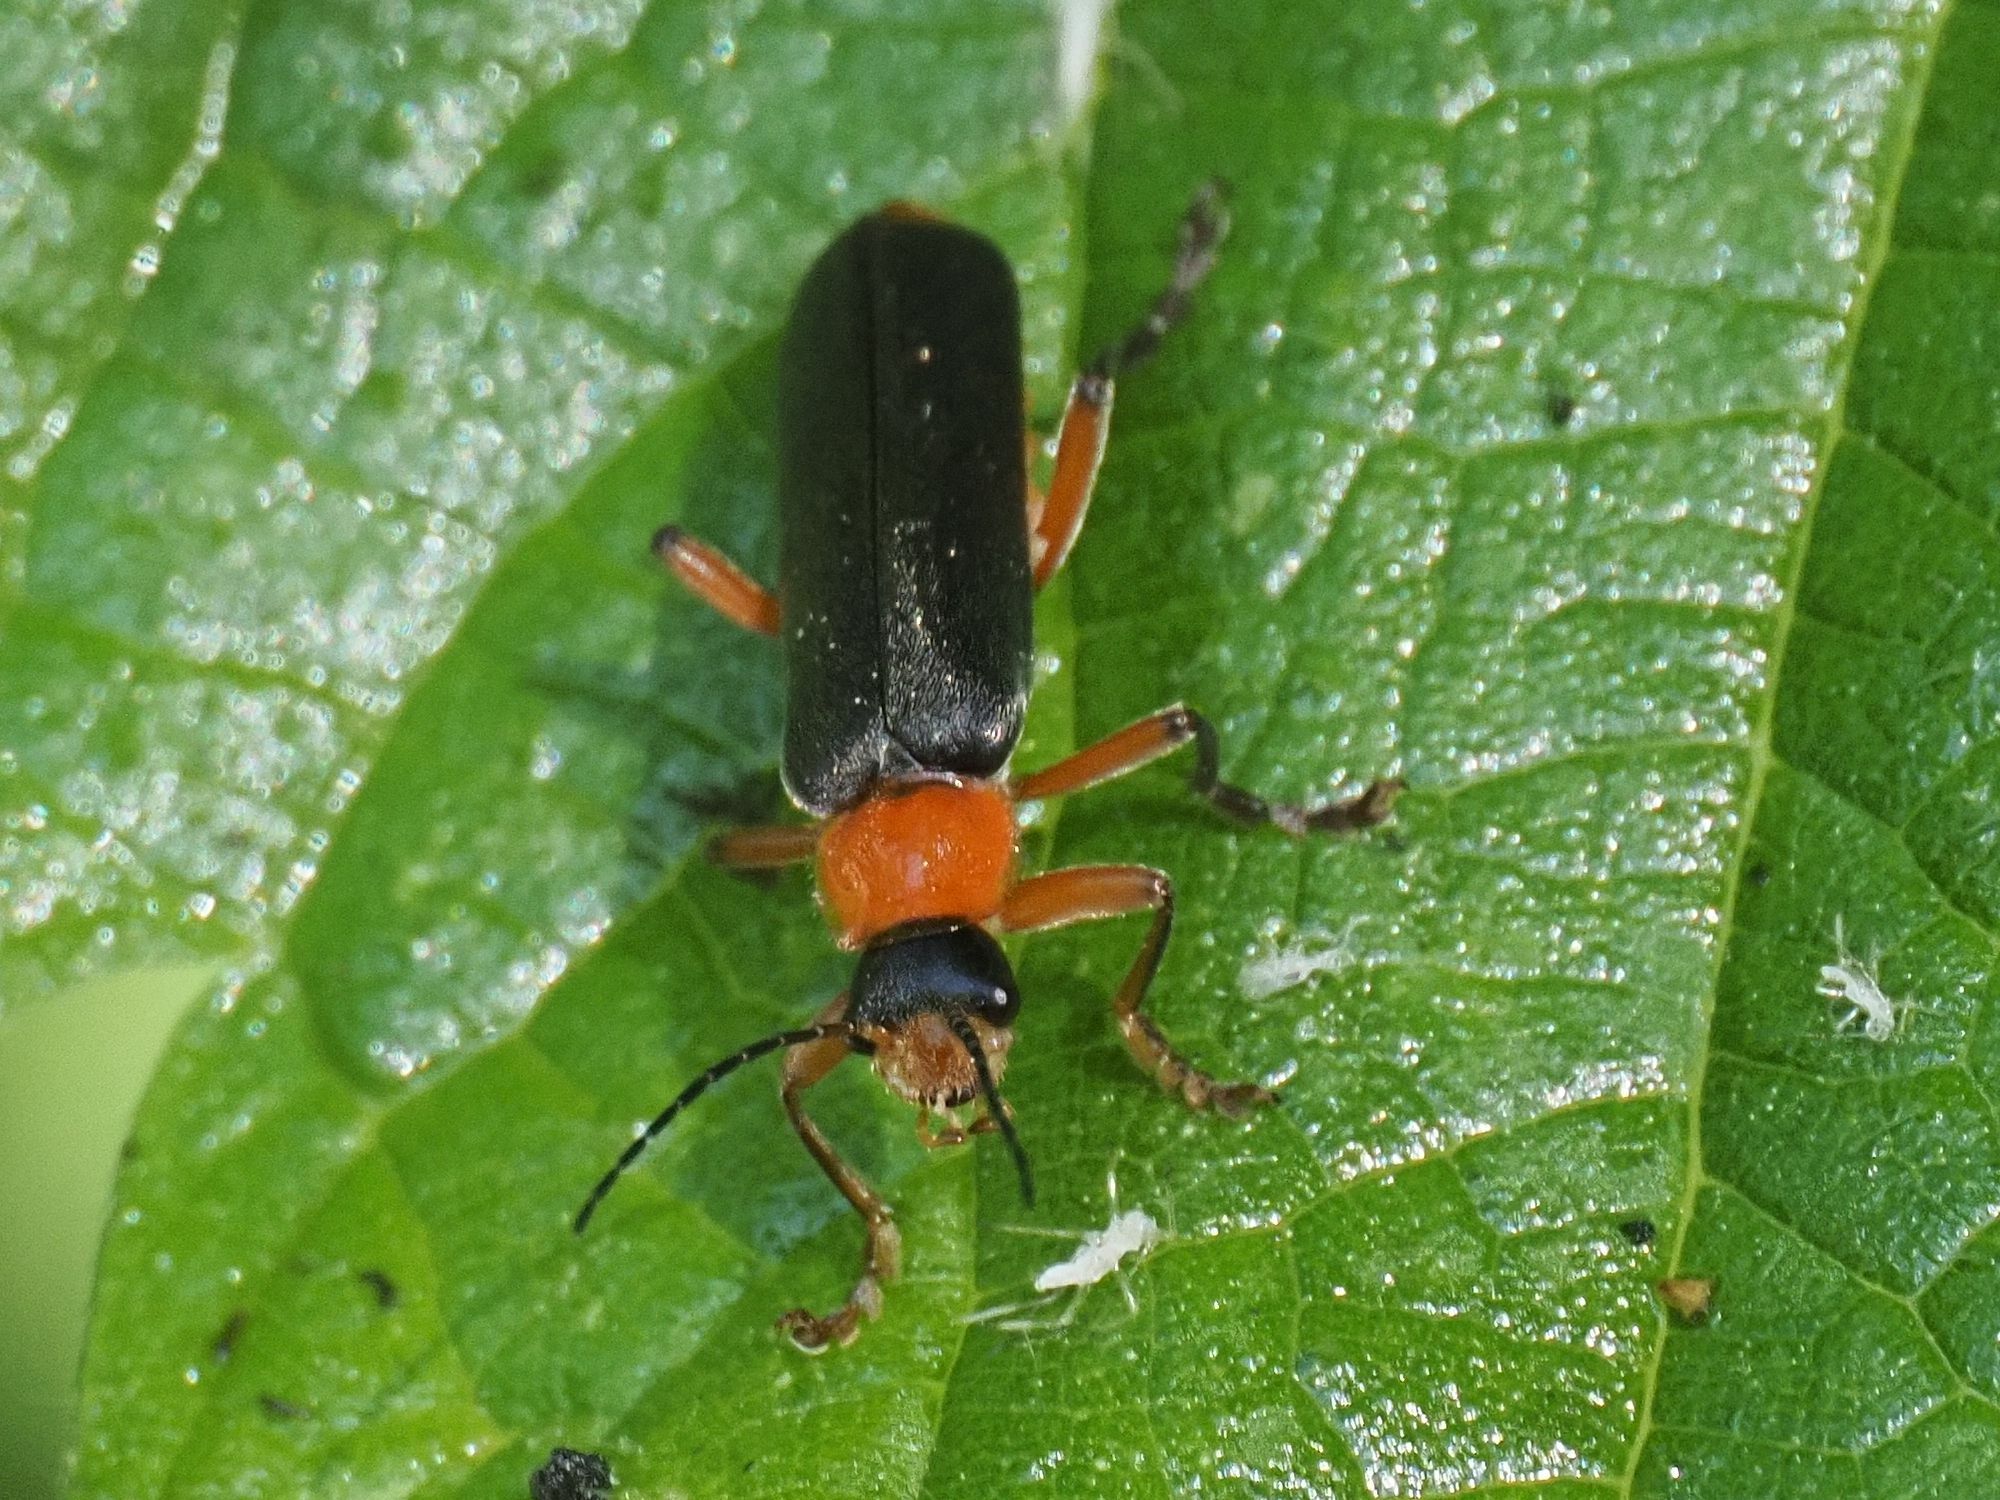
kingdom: Animalia
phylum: Arthropoda
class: Insecta
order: Coleoptera
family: Cantharidae
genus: Cantharis
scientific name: Cantharis pellucida
